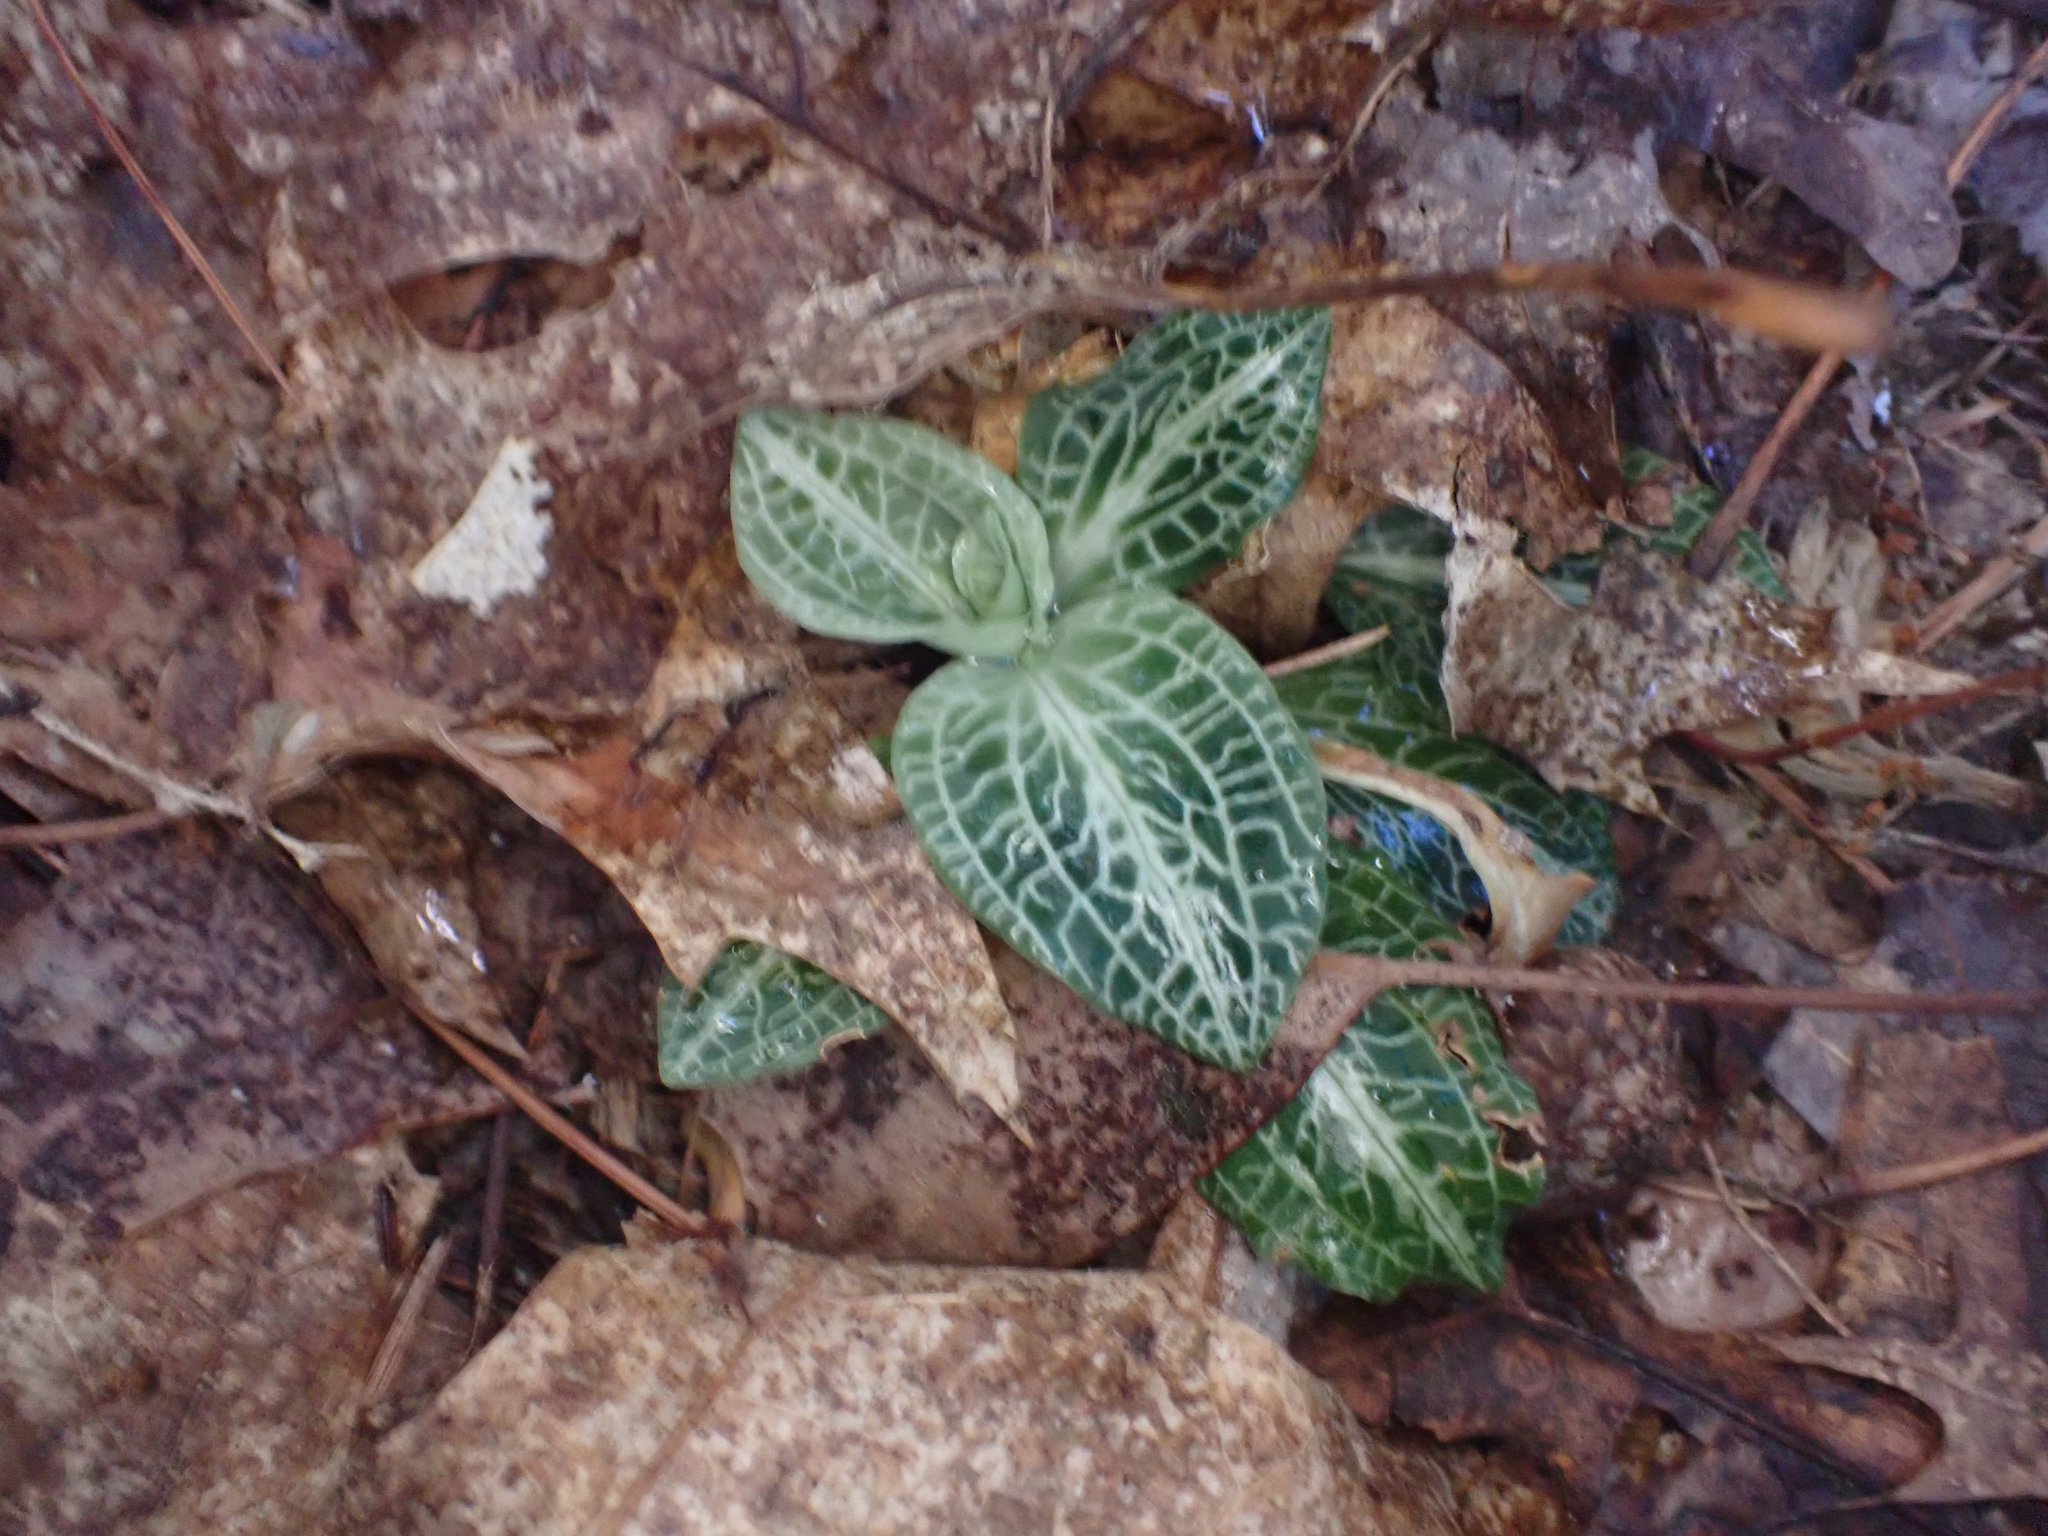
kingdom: Plantae
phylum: Tracheophyta
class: Liliopsida
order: Asparagales
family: Orchidaceae
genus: Goodyera
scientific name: Goodyera pubescens
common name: Downy rattlesnake-plantain
